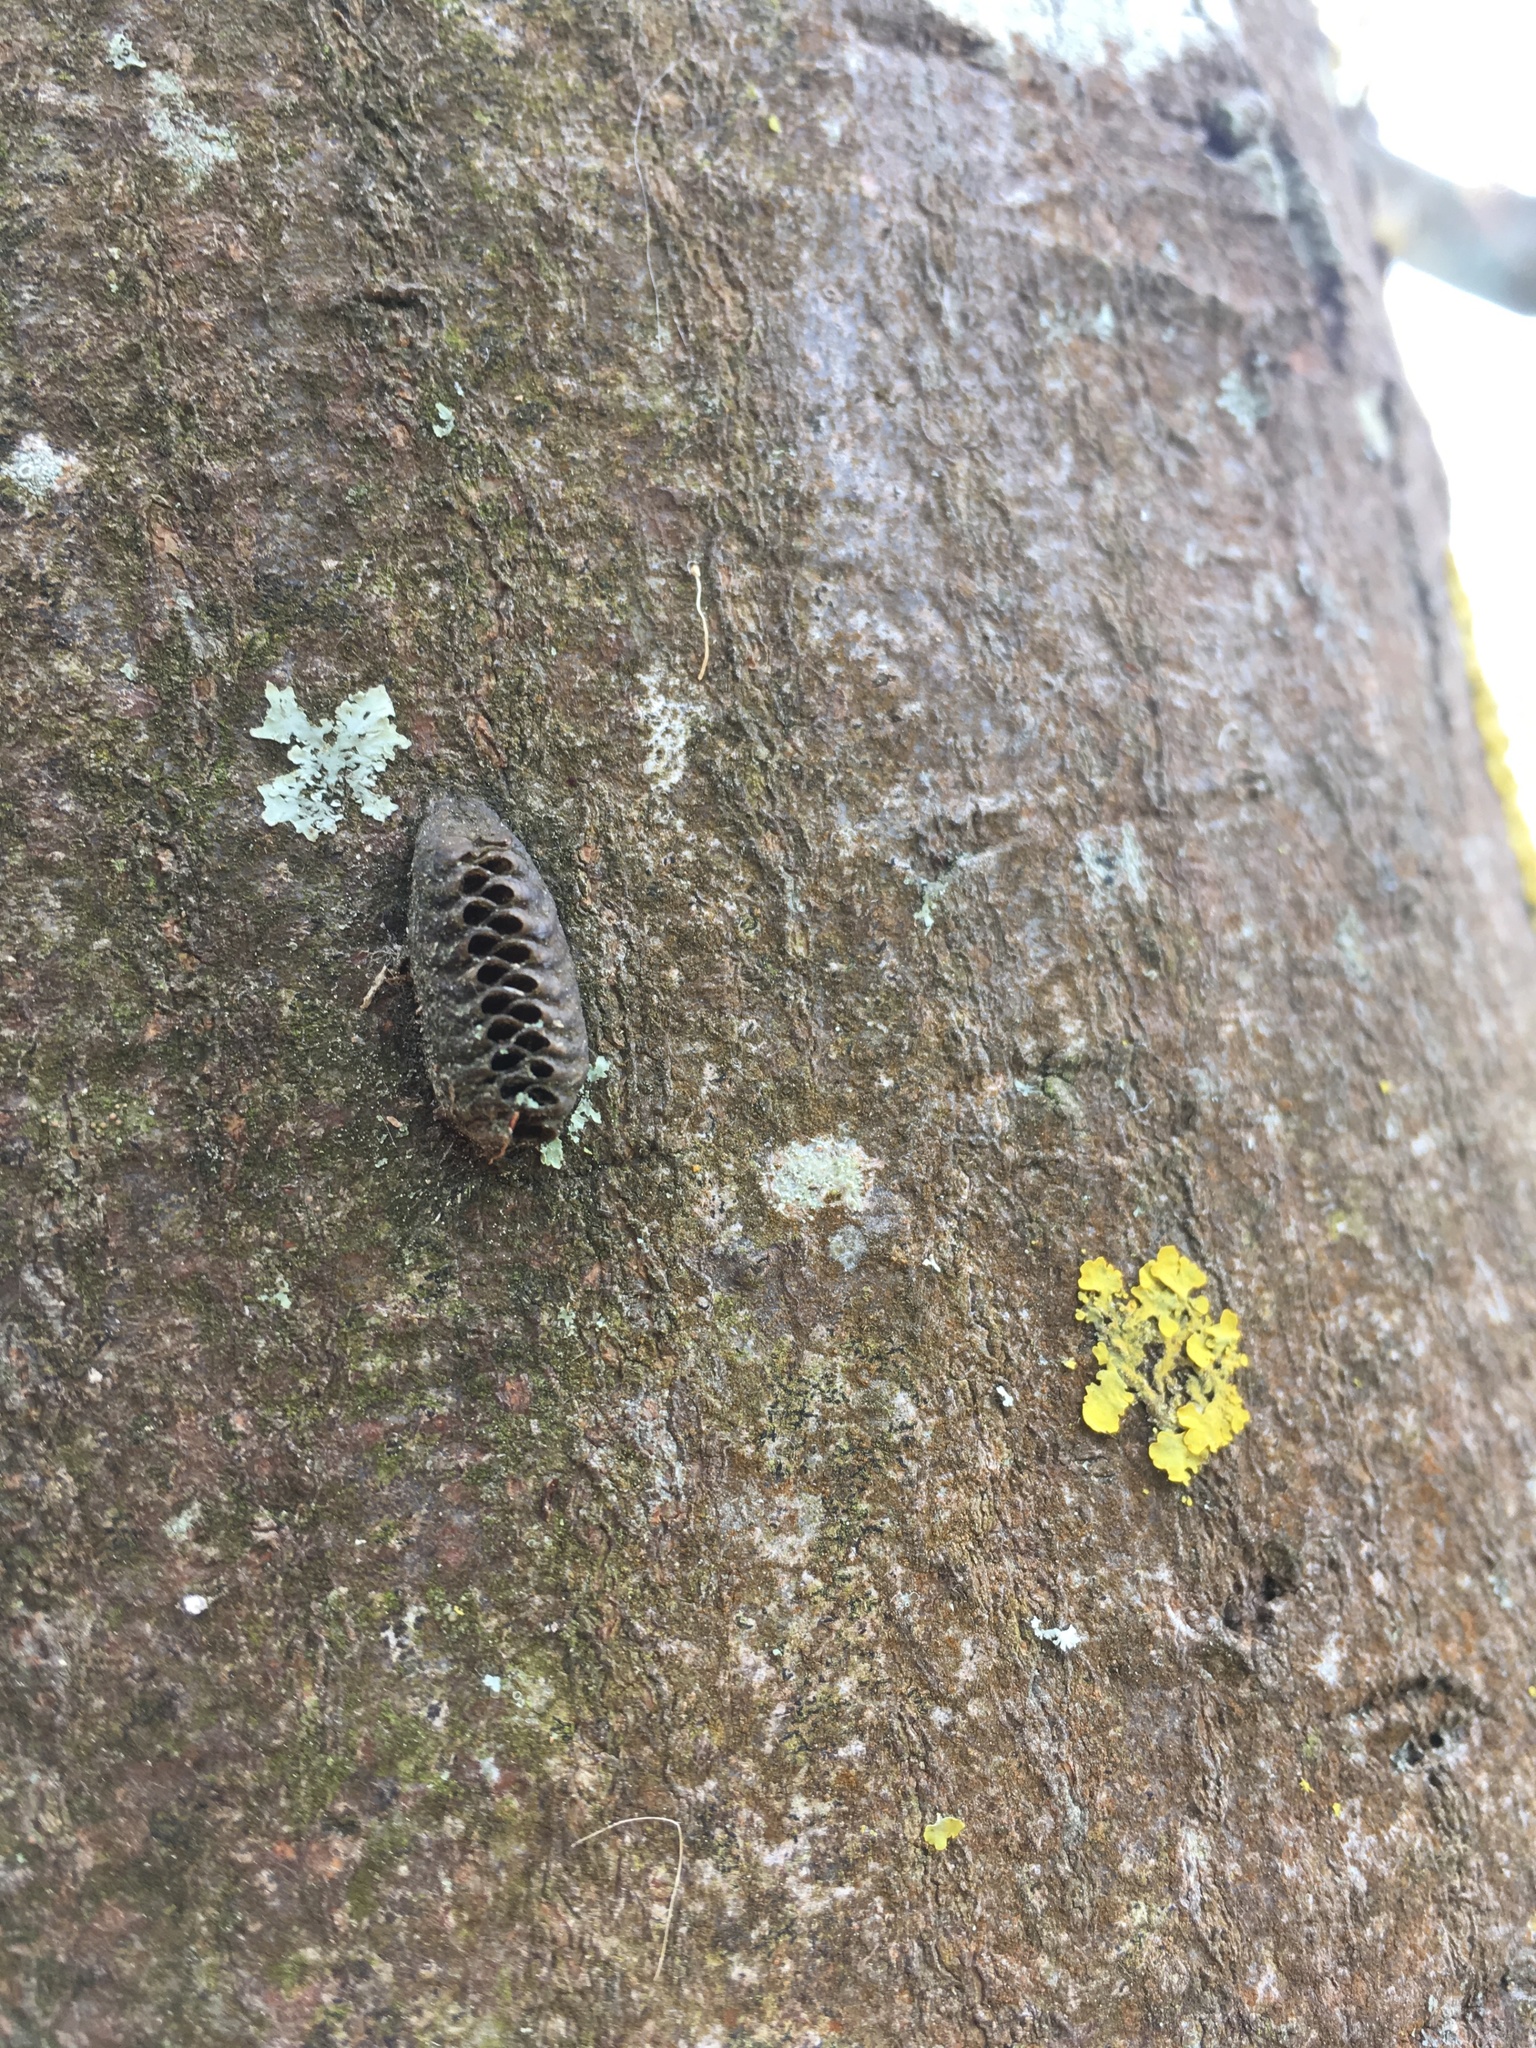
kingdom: Animalia
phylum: Arthropoda
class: Insecta
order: Mantodea
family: Mantidae
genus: Orthodera
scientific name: Orthodera novaezealandiae
